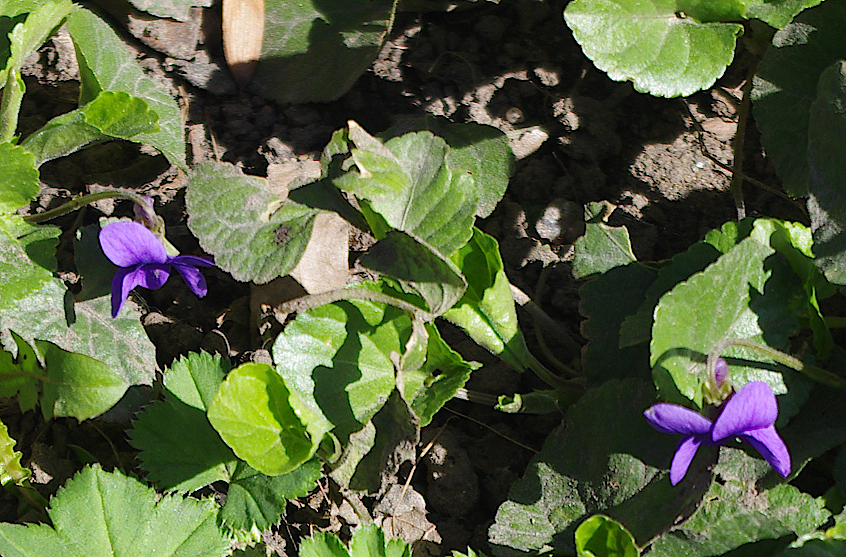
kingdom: Plantae
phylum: Tracheophyta
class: Magnoliopsida
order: Malpighiales
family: Violaceae
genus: Viola
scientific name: Viola odorata
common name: Sweet violet
